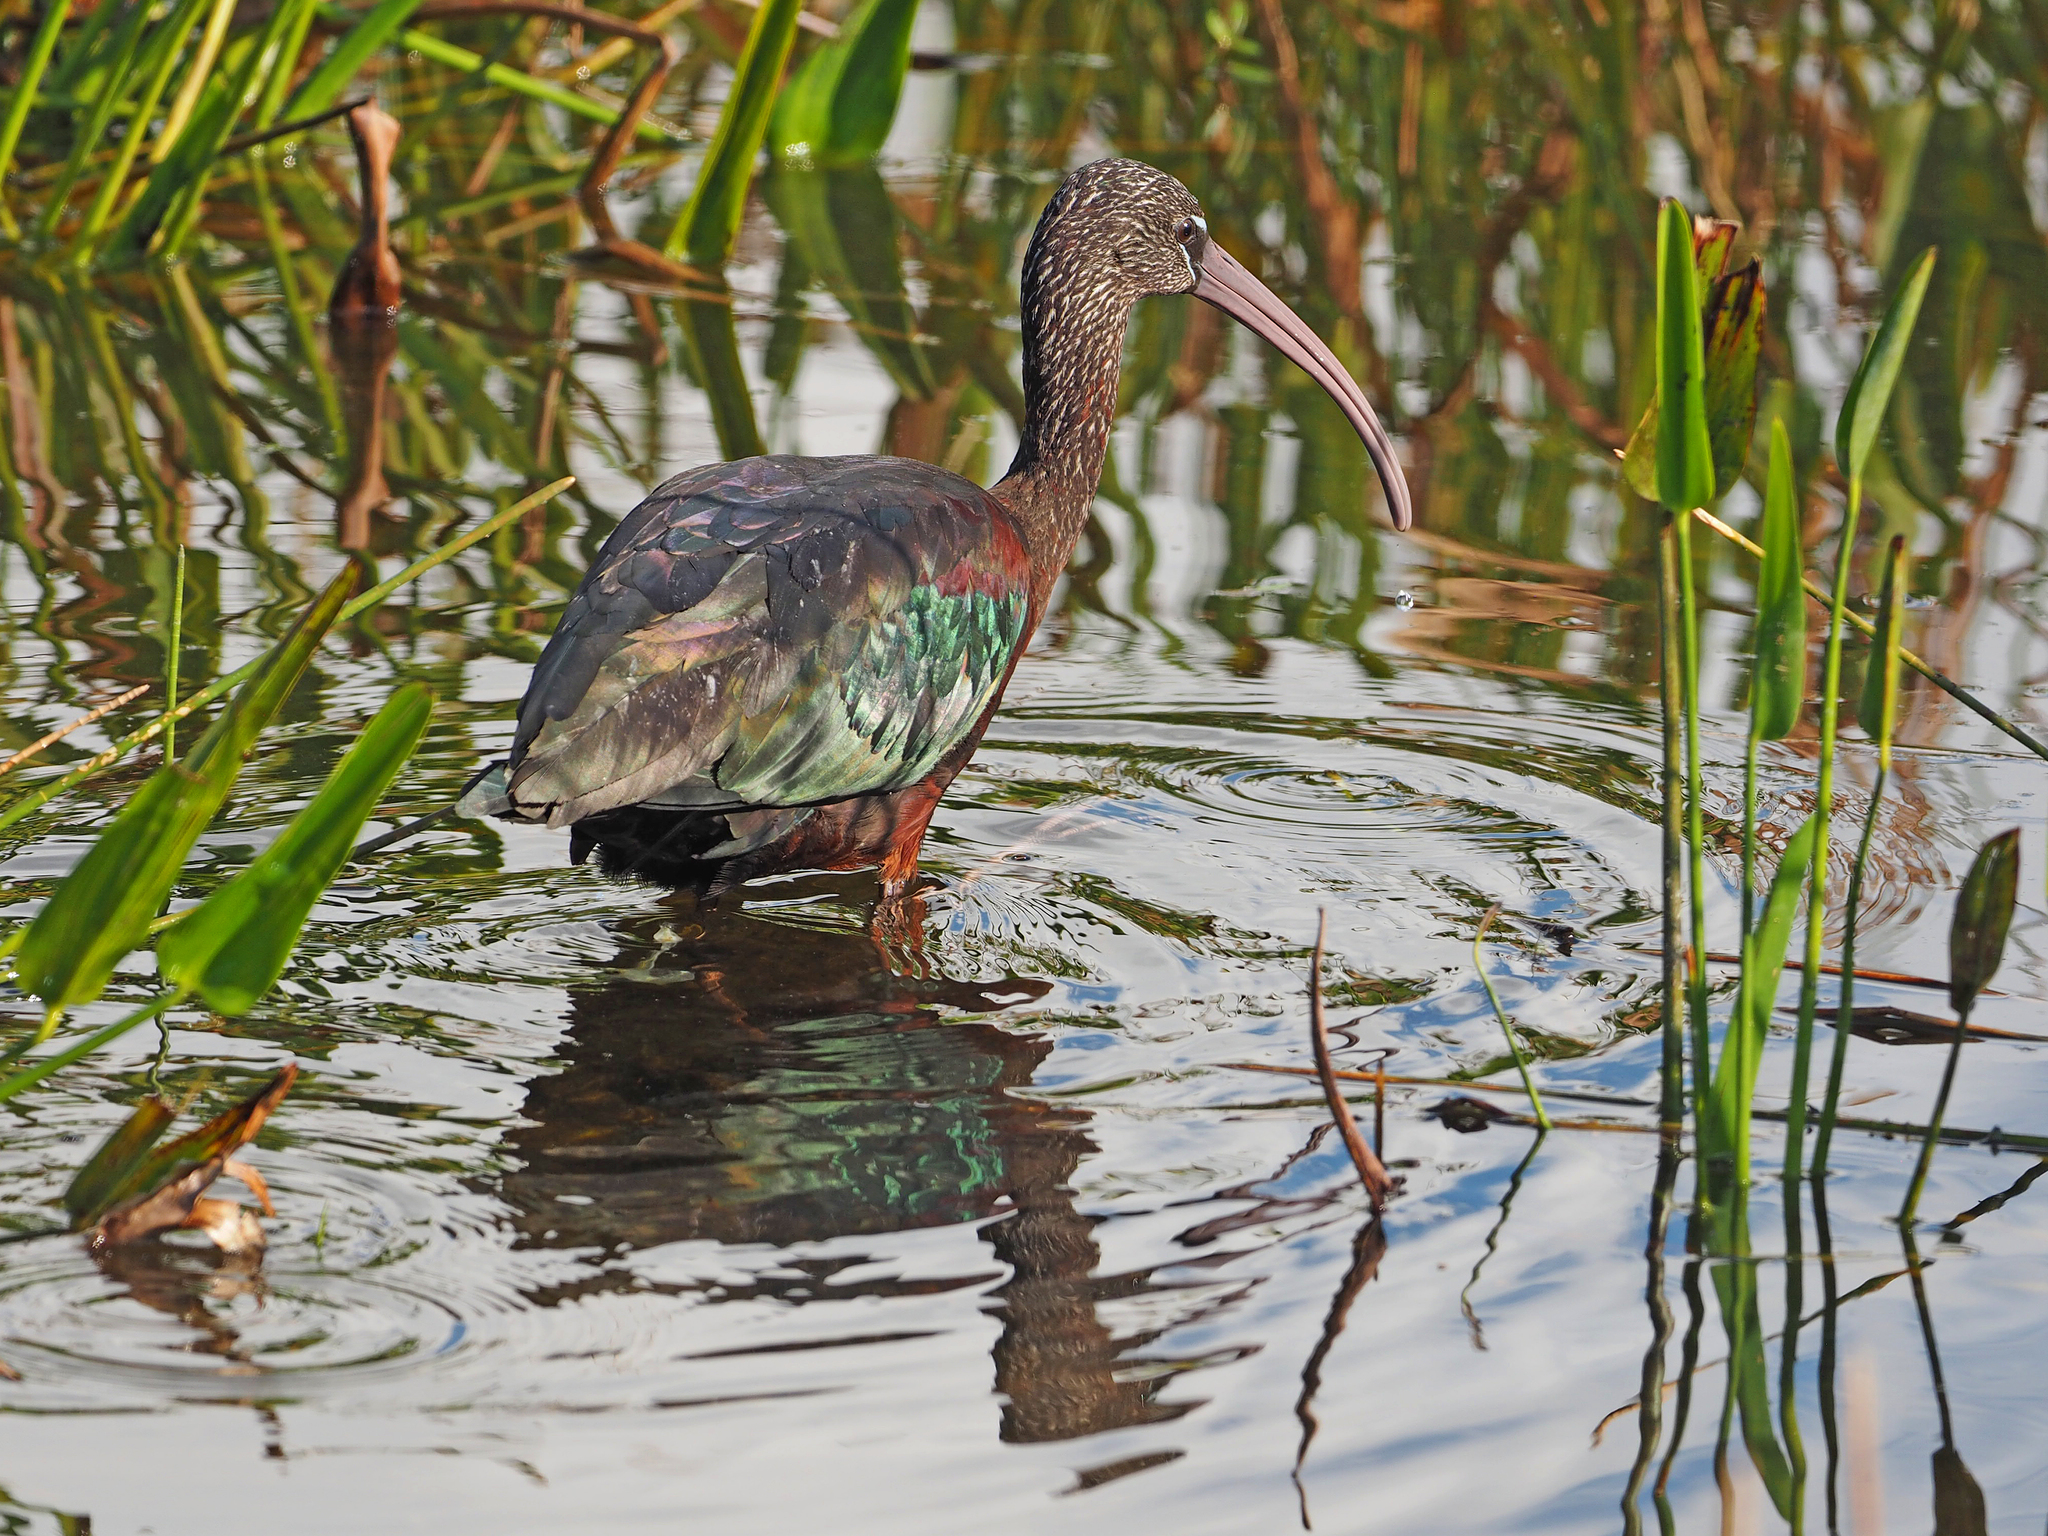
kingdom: Animalia
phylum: Chordata
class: Aves
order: Pelecaniformes
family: Threskiornithidae
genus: Plegadis
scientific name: Plegadis falcinellus
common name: Glossy ibis
